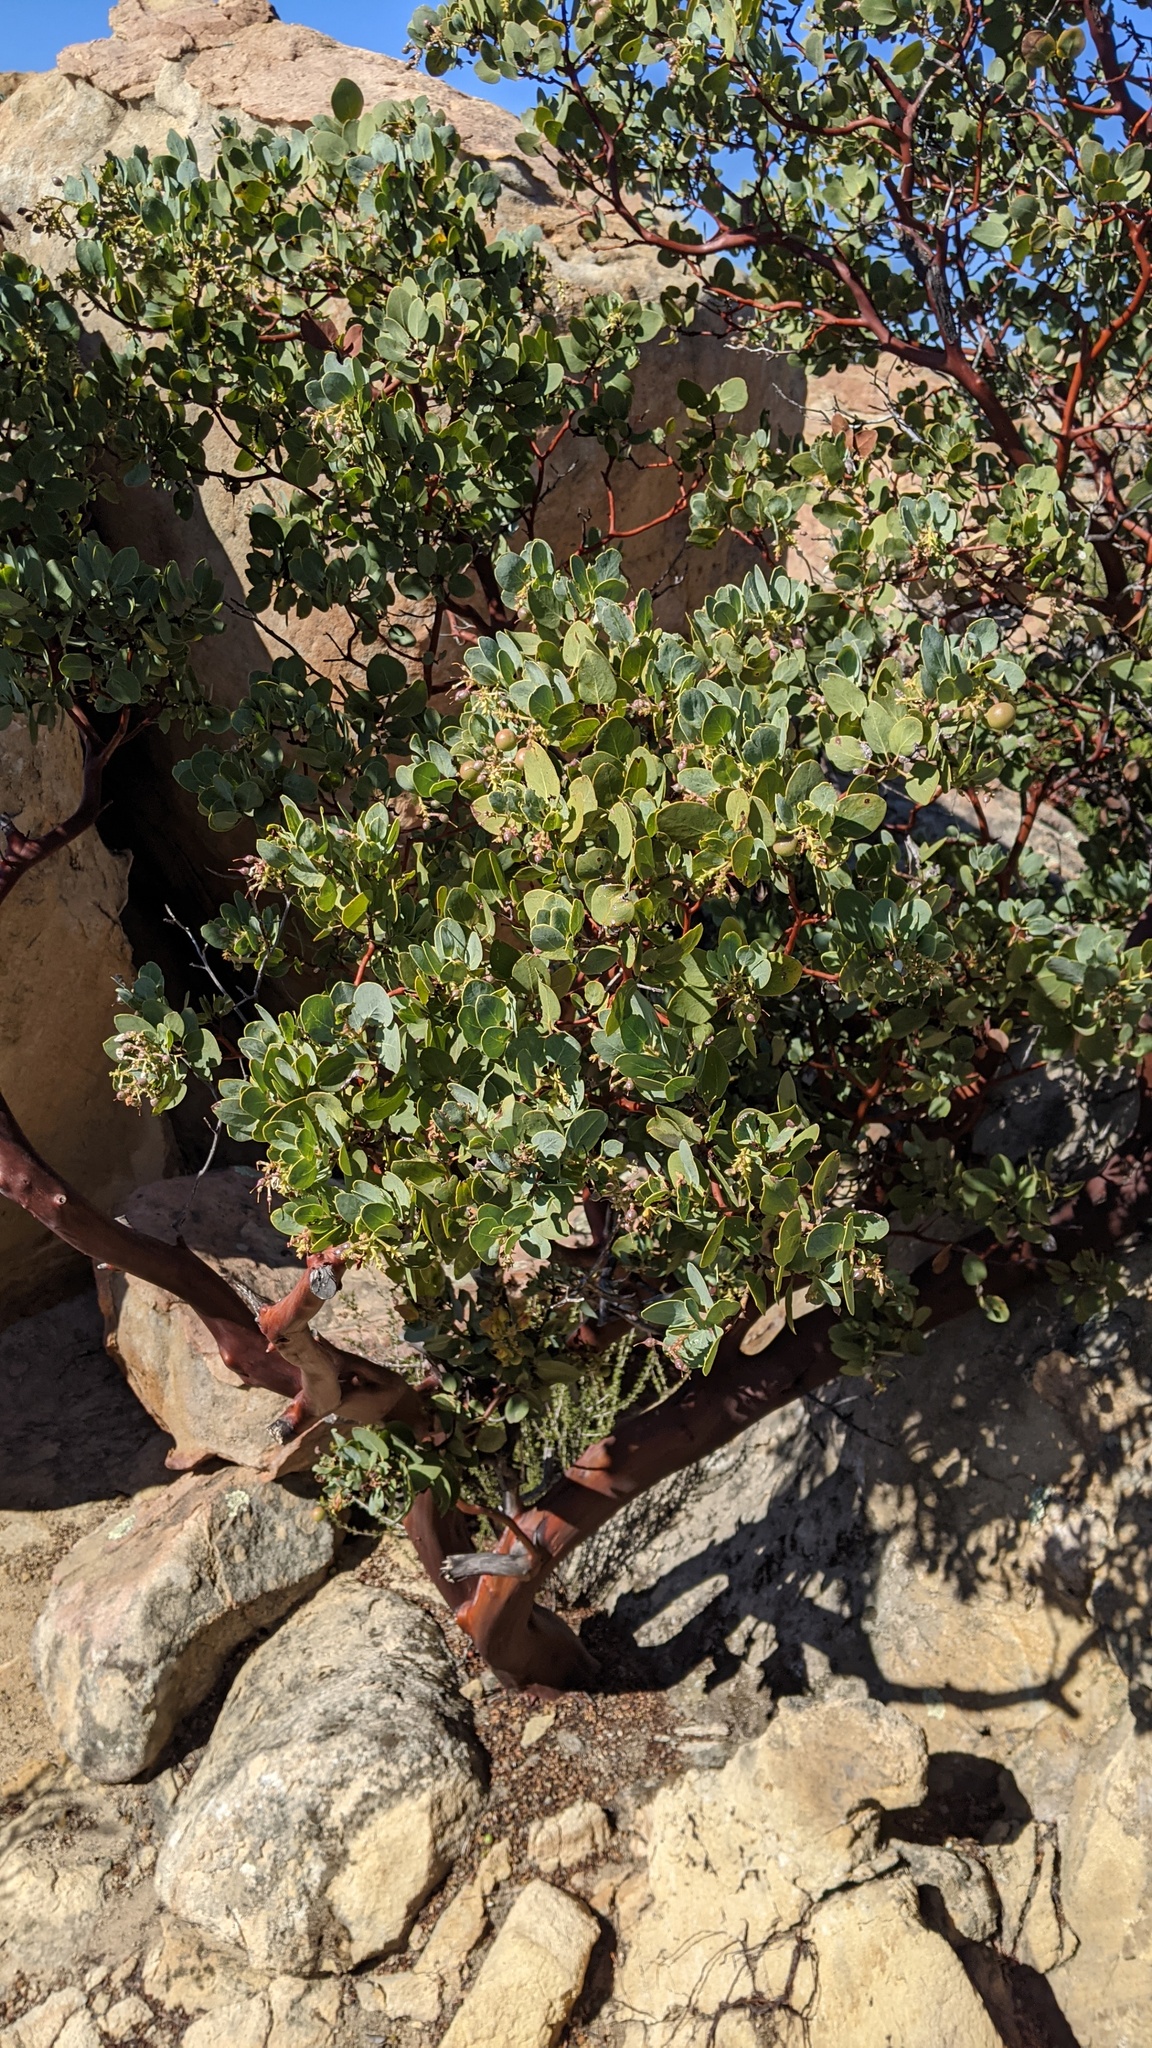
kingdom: Plantae
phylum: Tracheophyta
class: Magnoliopsida
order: Ericales
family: Ericaceae
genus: Arctostaphylos
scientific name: Arctostaphylos glauca
